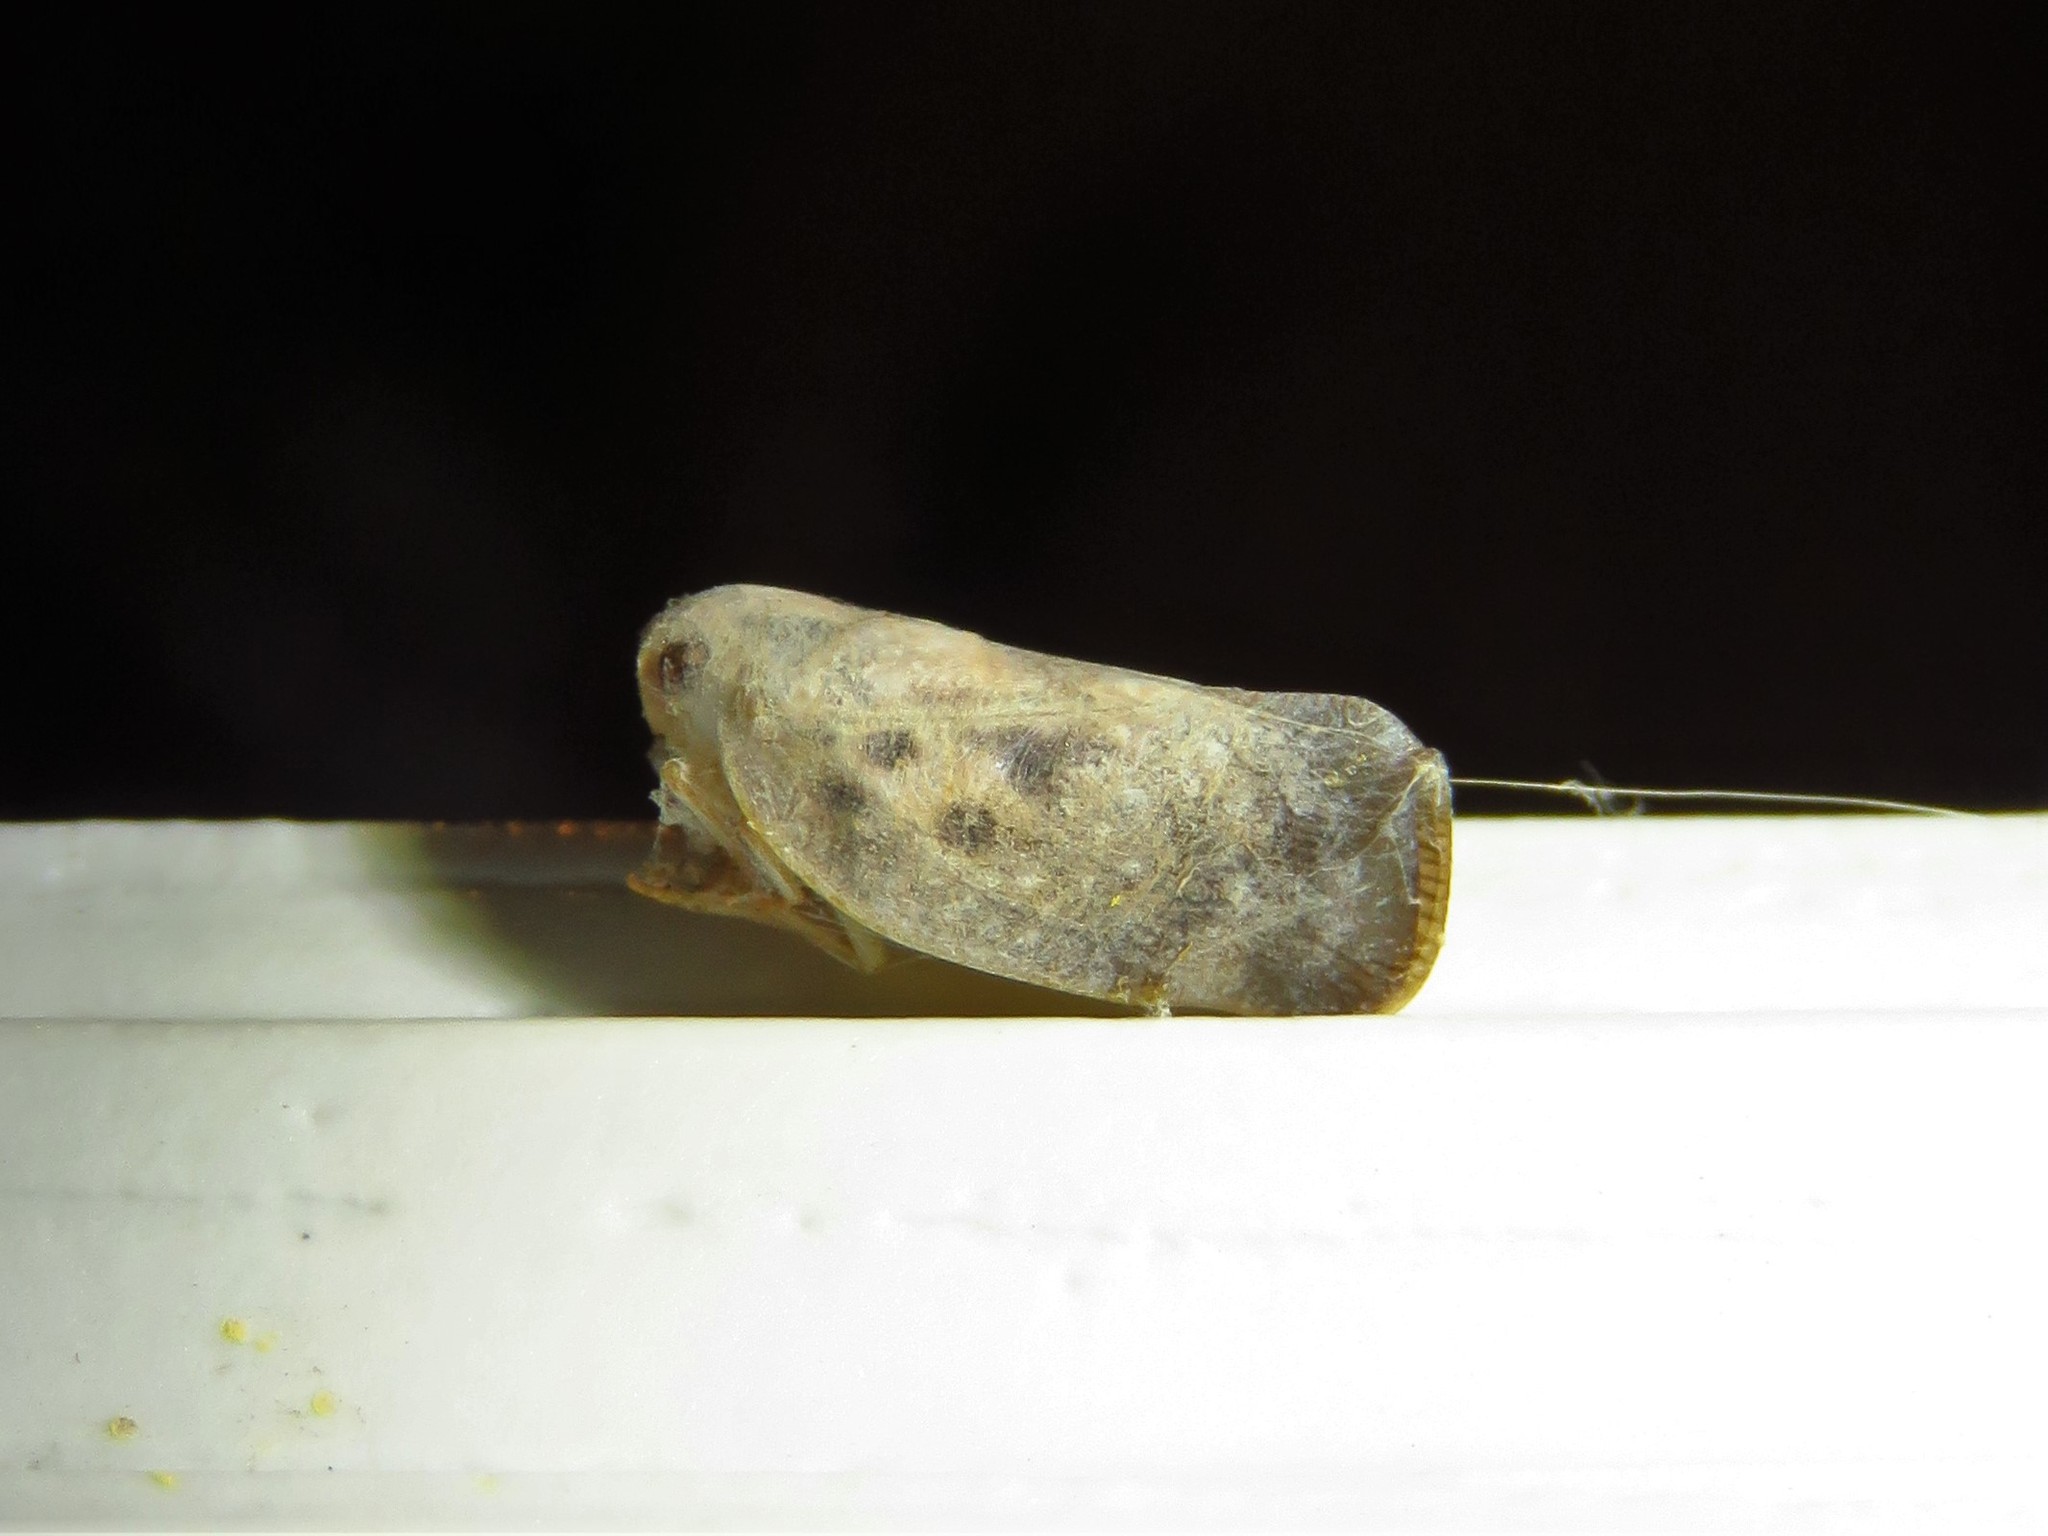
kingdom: Animalia
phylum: Arthropoda
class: Insecta
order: Hemiptera
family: Flatidae
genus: Metcalfa
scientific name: Metcalfa pruinosa
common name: Citrus flatid planthopper
